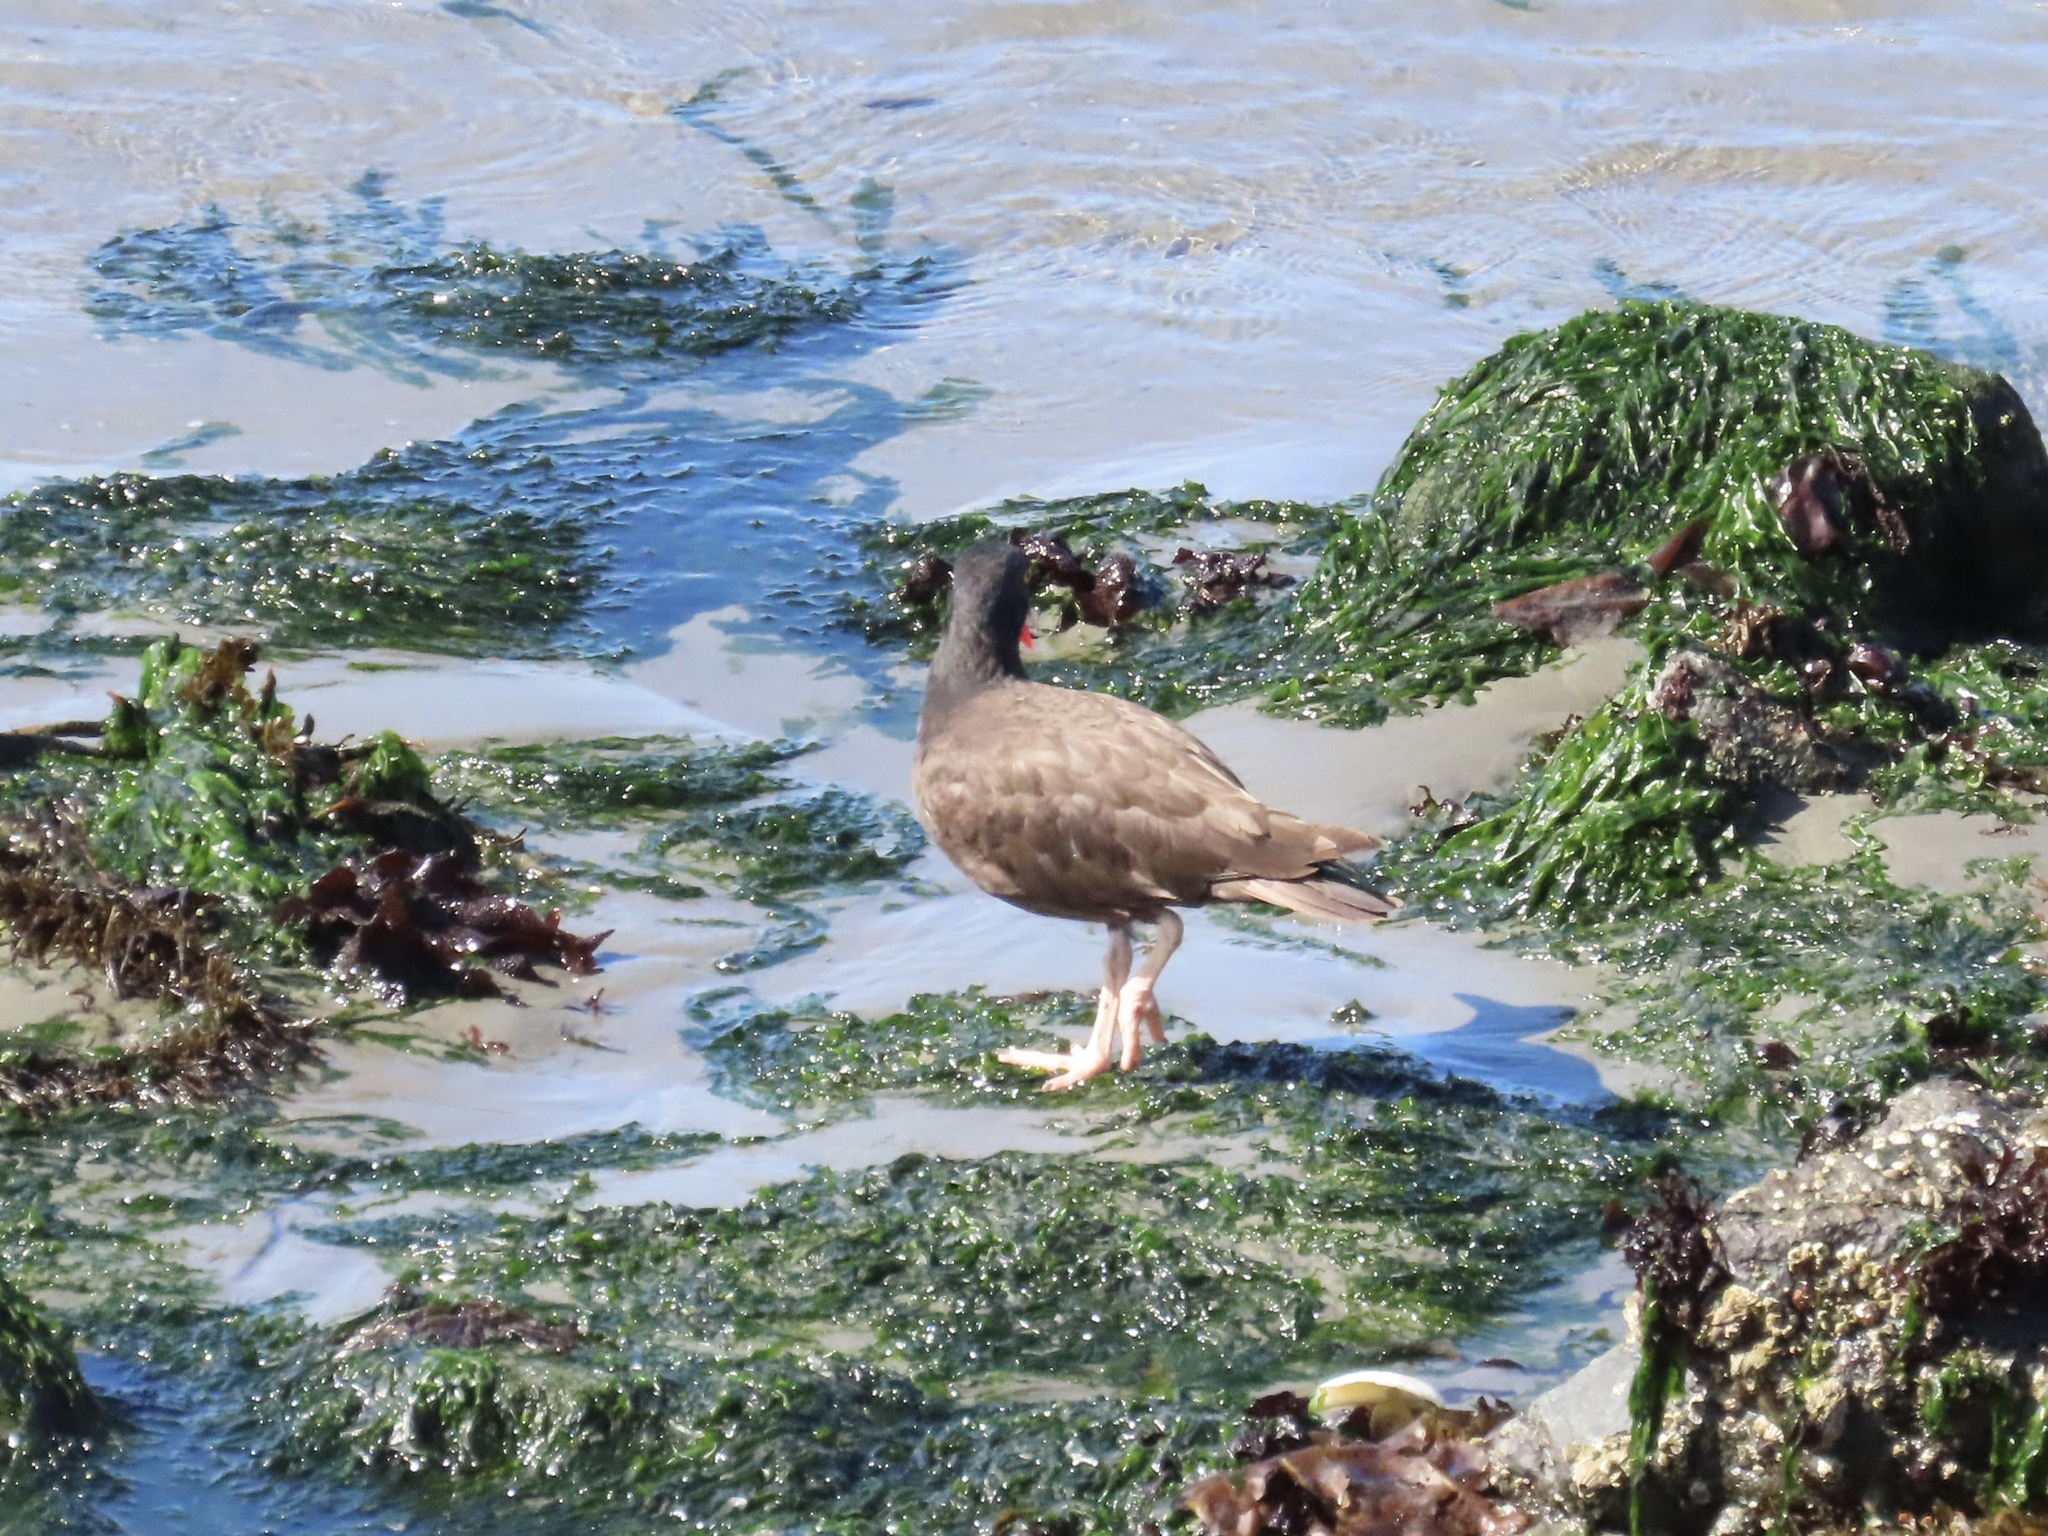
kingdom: Animalia
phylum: Chordata
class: Aves
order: Charadriiformes
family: Haematopodidae
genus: Haematopus
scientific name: Haematopus bachmani
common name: Black oystercatcher
